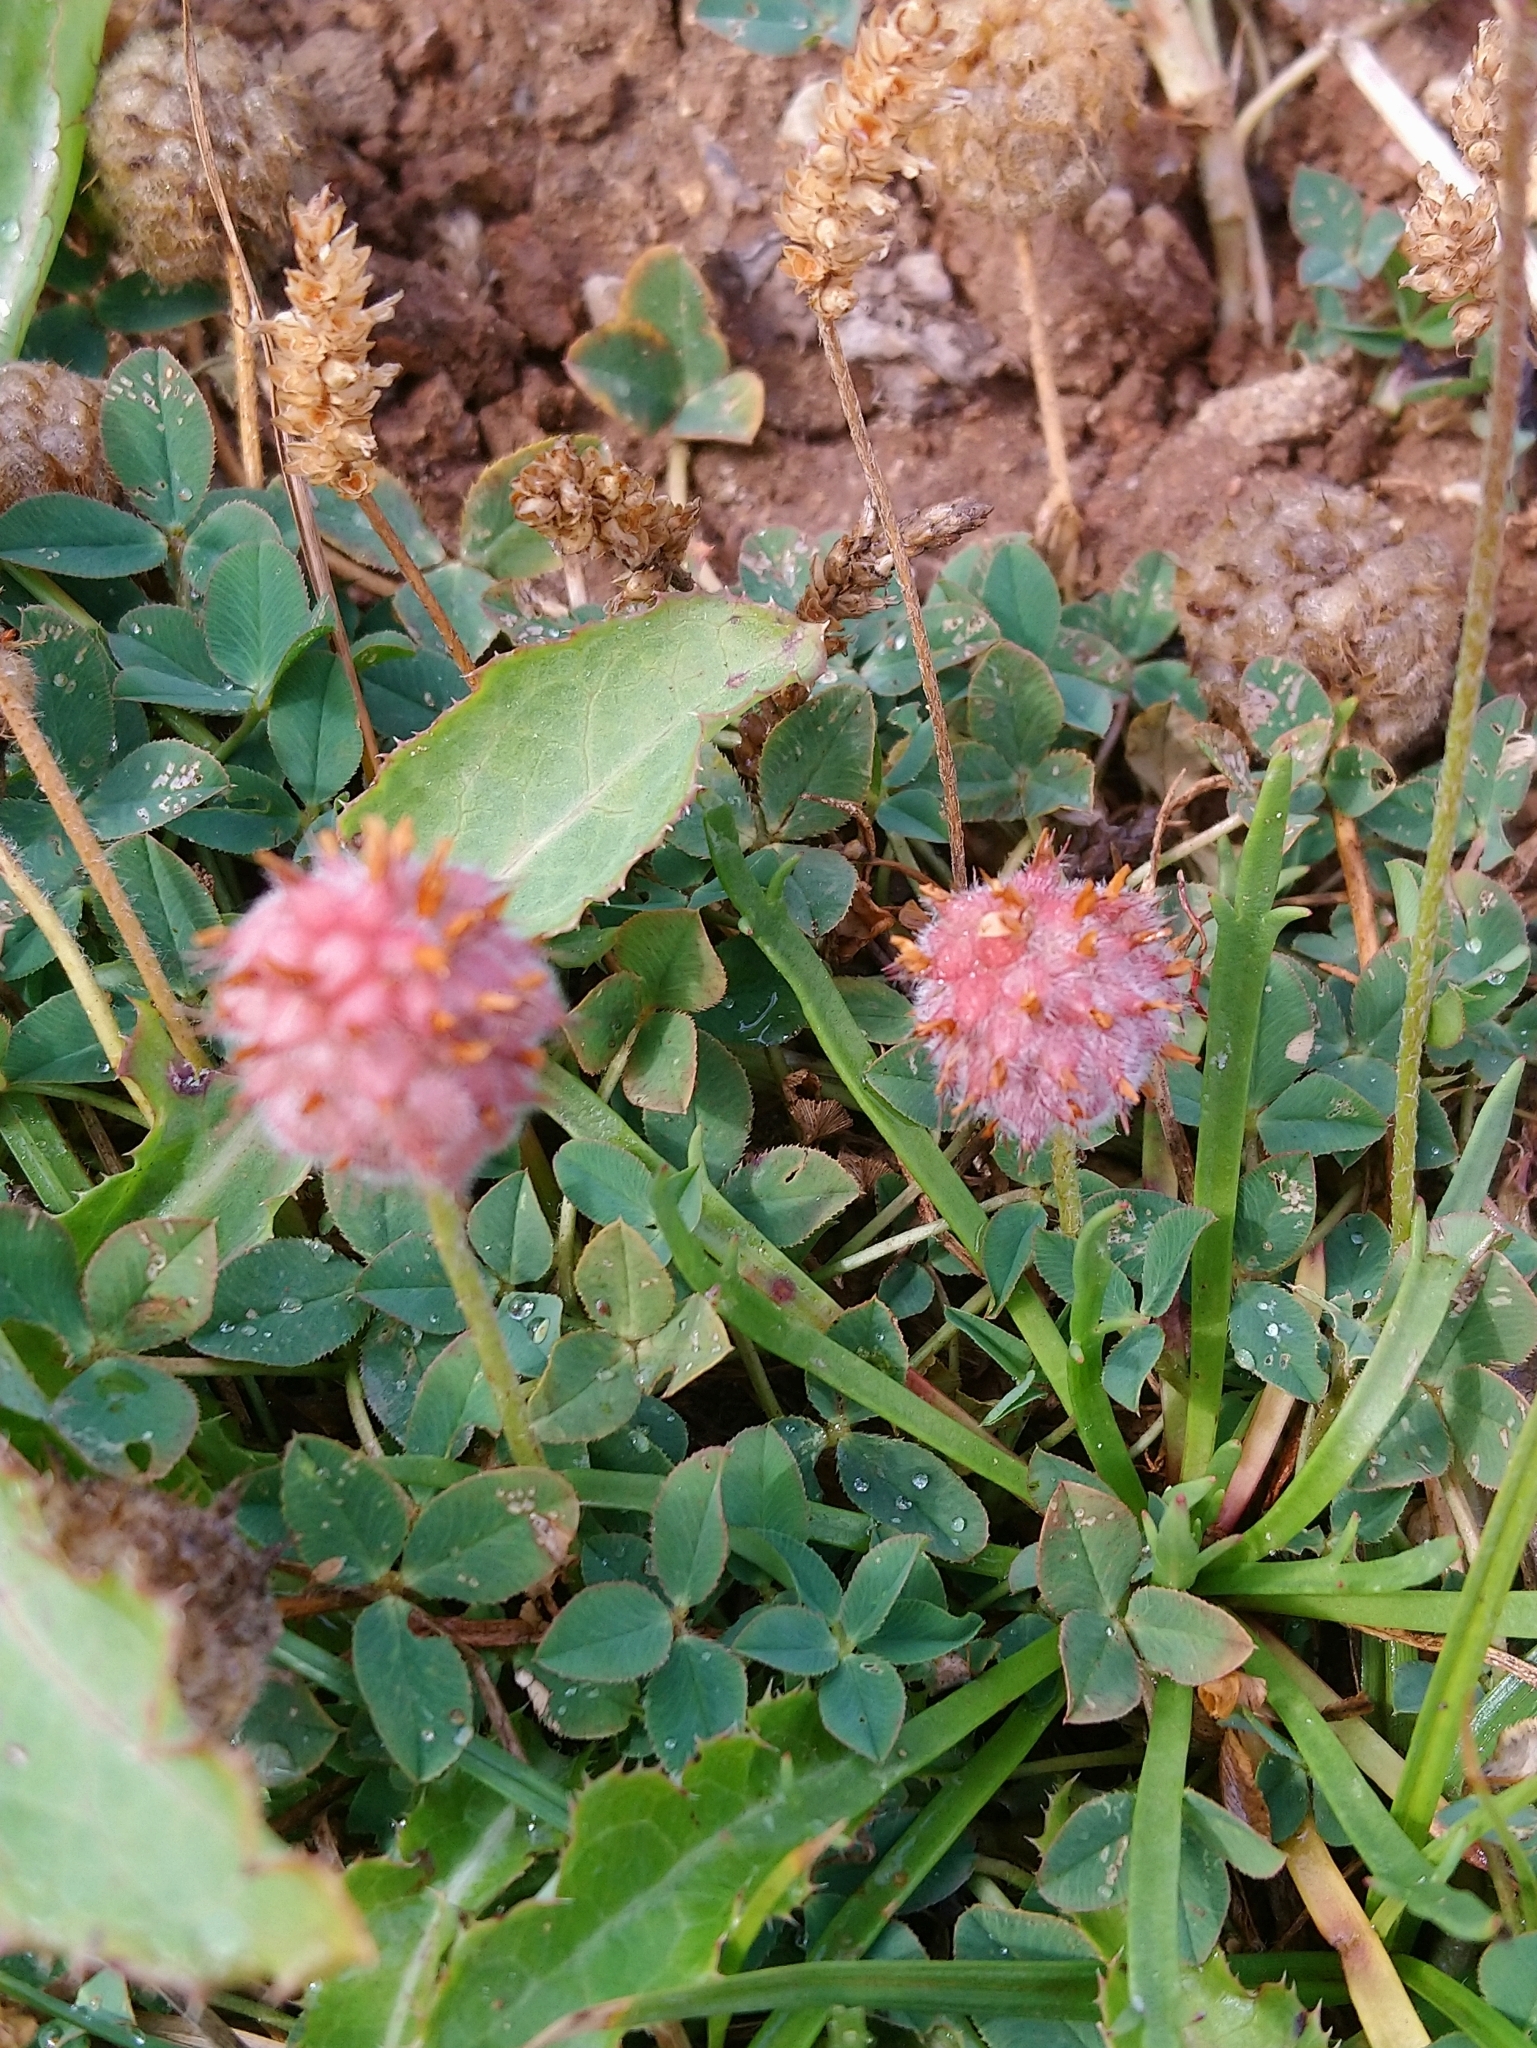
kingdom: Plantae
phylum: Tracheophyta
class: Magnoliopsida
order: Fabales
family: Fabaceae
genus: Trifolium
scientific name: Trifolium fragiferum
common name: Strawberry clover
